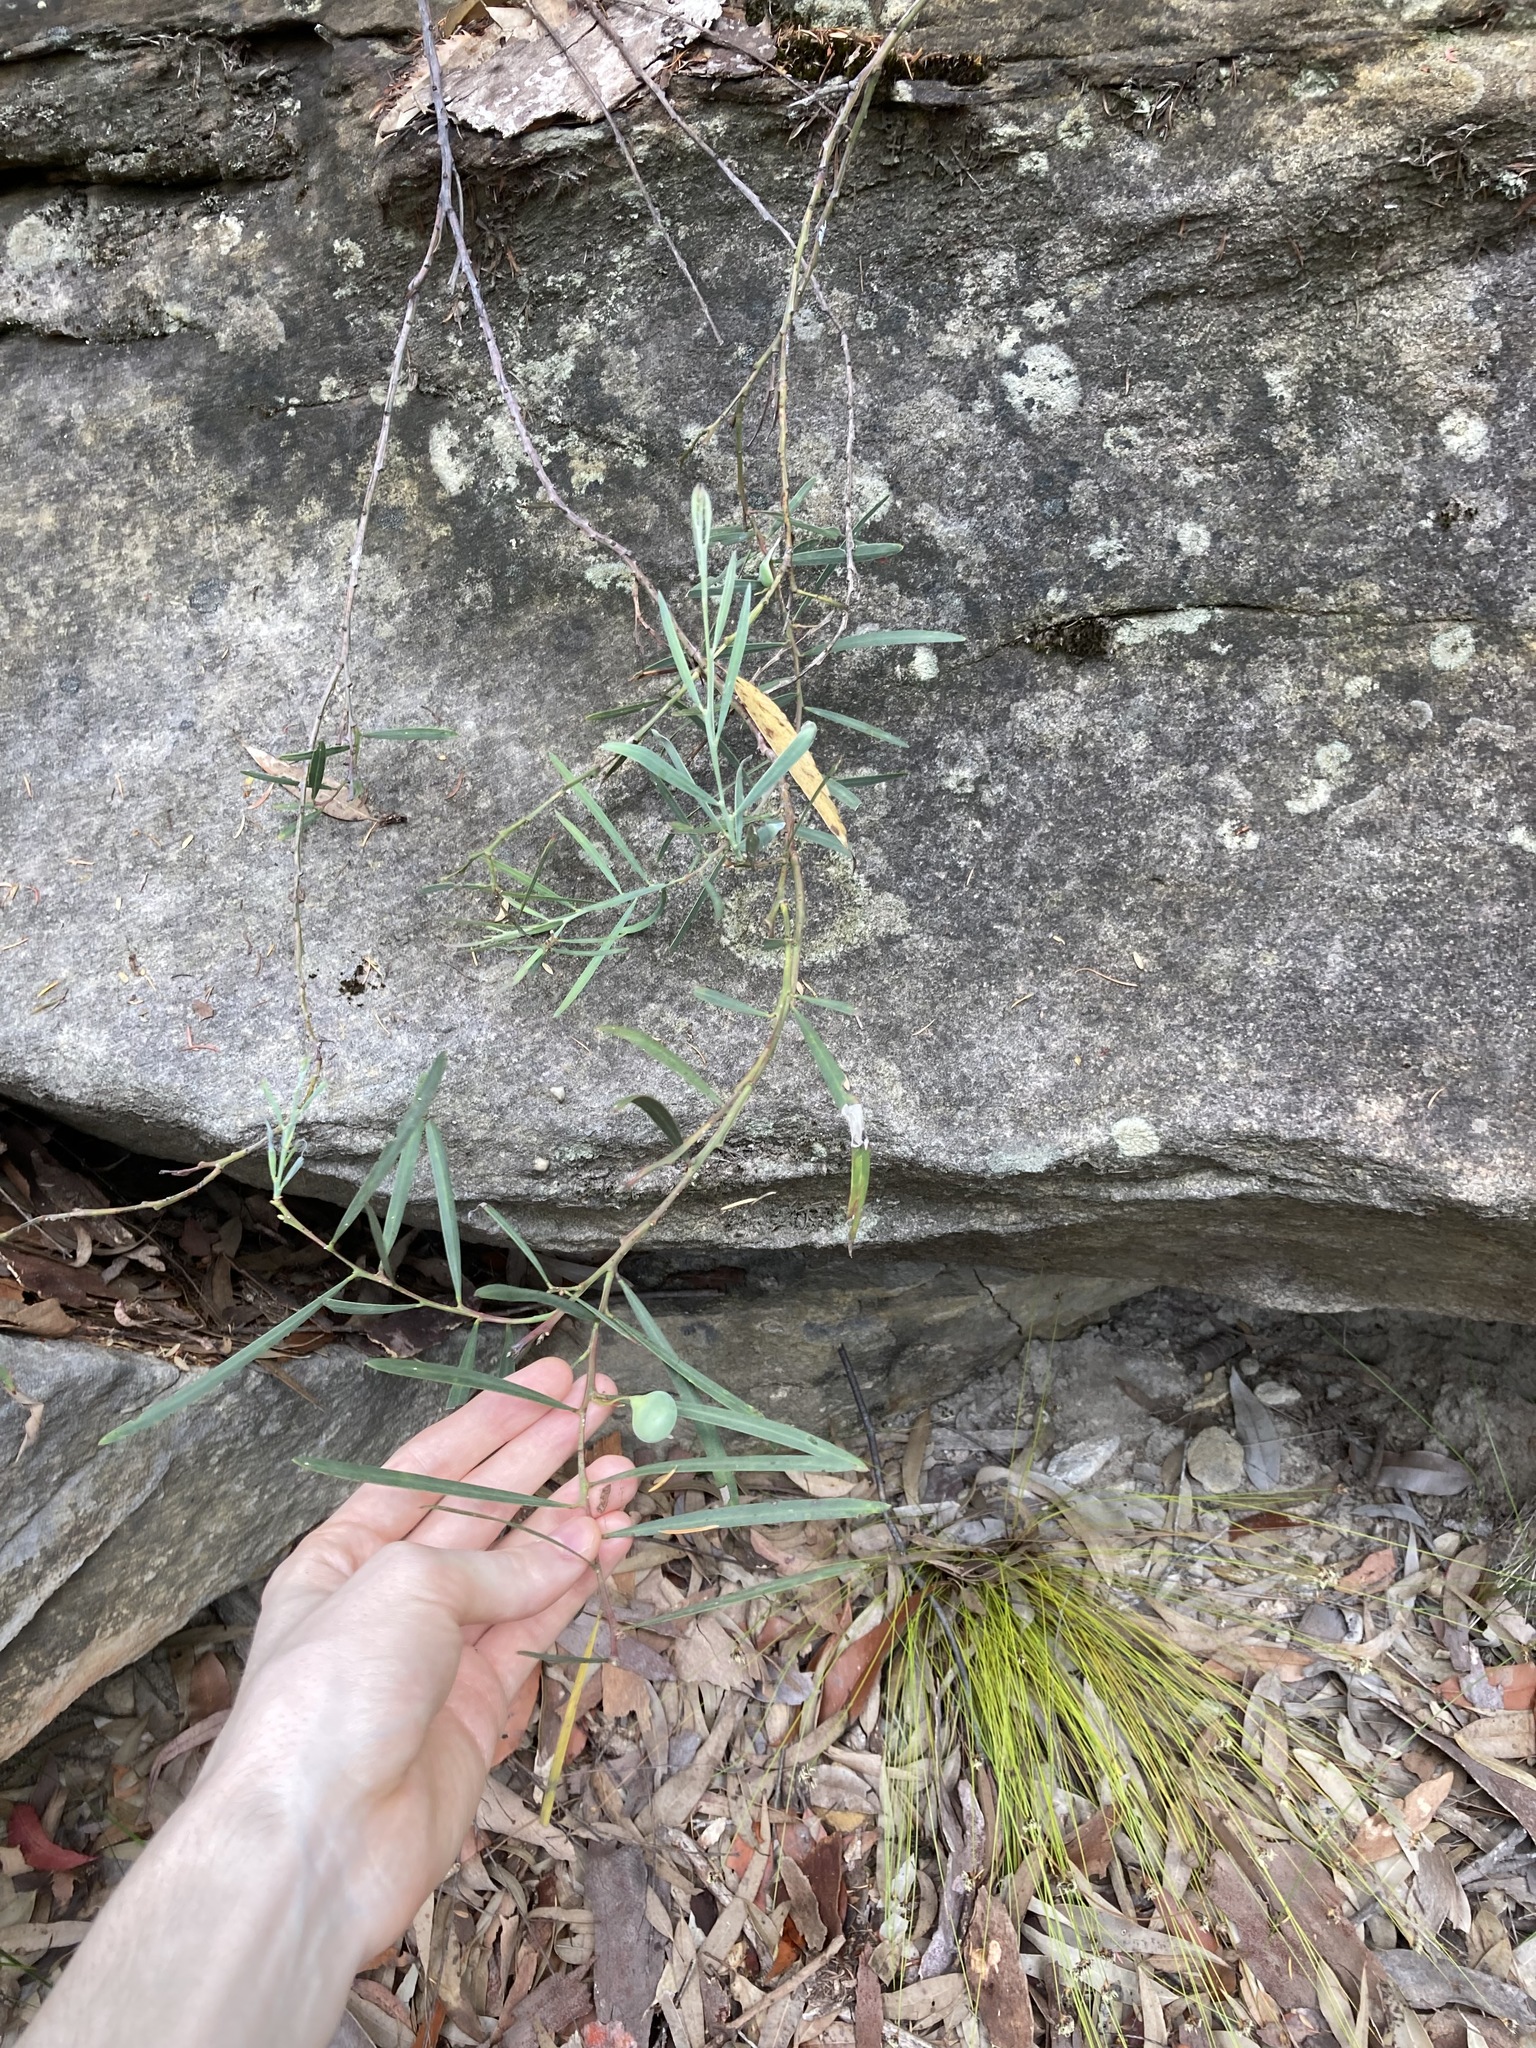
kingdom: Plantae
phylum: Tracheophyta
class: Magnoliopsida
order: Fabales
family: Fabaceae
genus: Acacia
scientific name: Acacia suaveolens
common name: Sweet acacia
